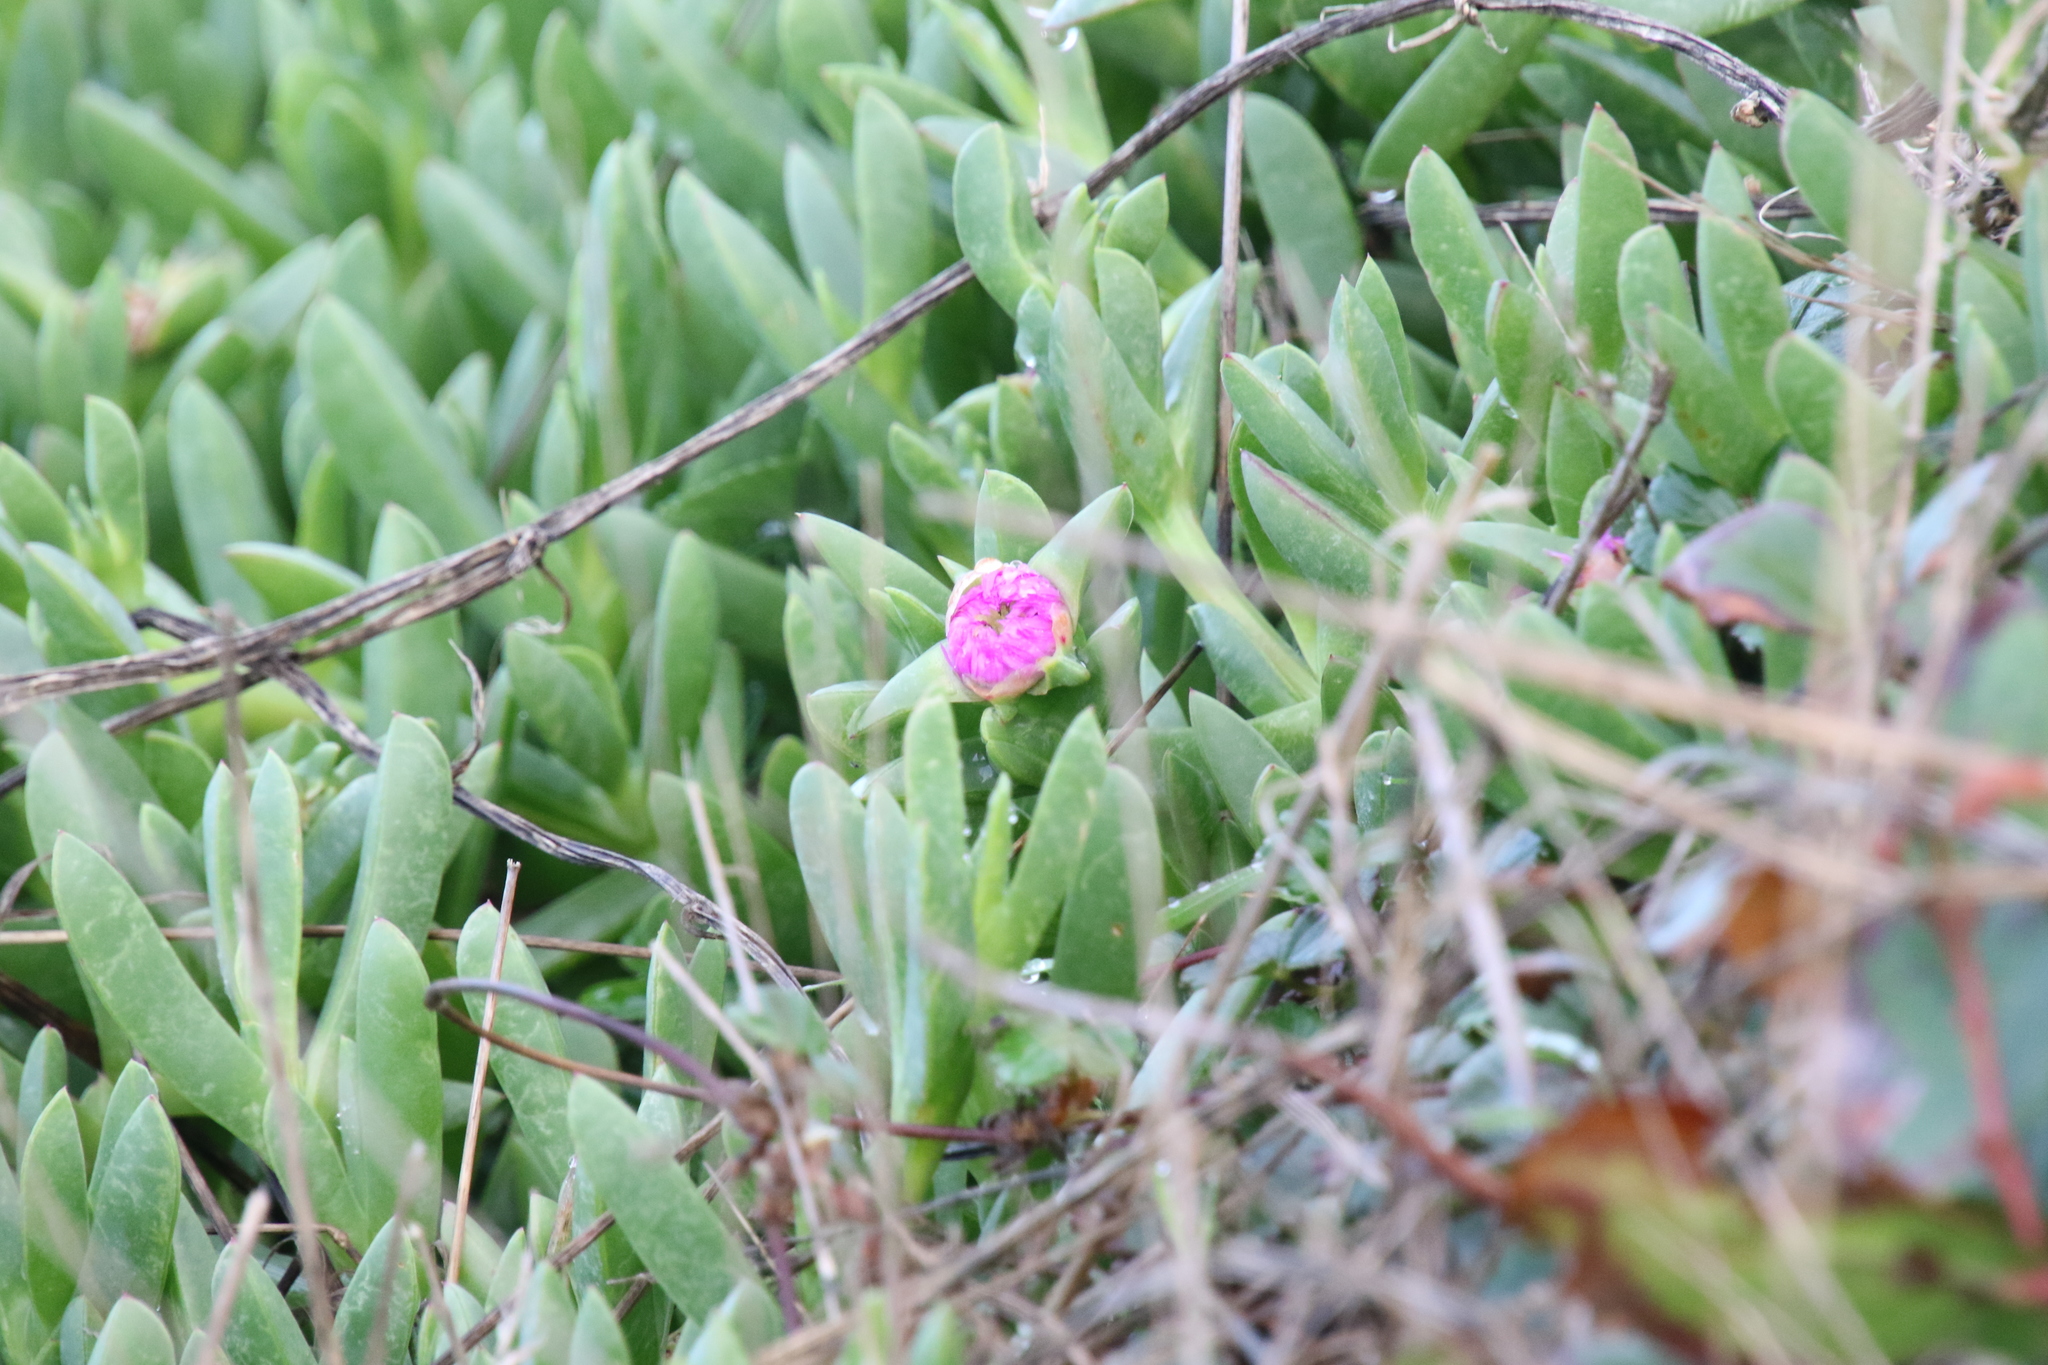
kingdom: Plantae
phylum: Tracheophyta
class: Magnoliopsida
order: Caryophyllales
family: Aizoaceae
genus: Carpobrotus
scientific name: Carpobrotus chilensis
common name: Sea fig
